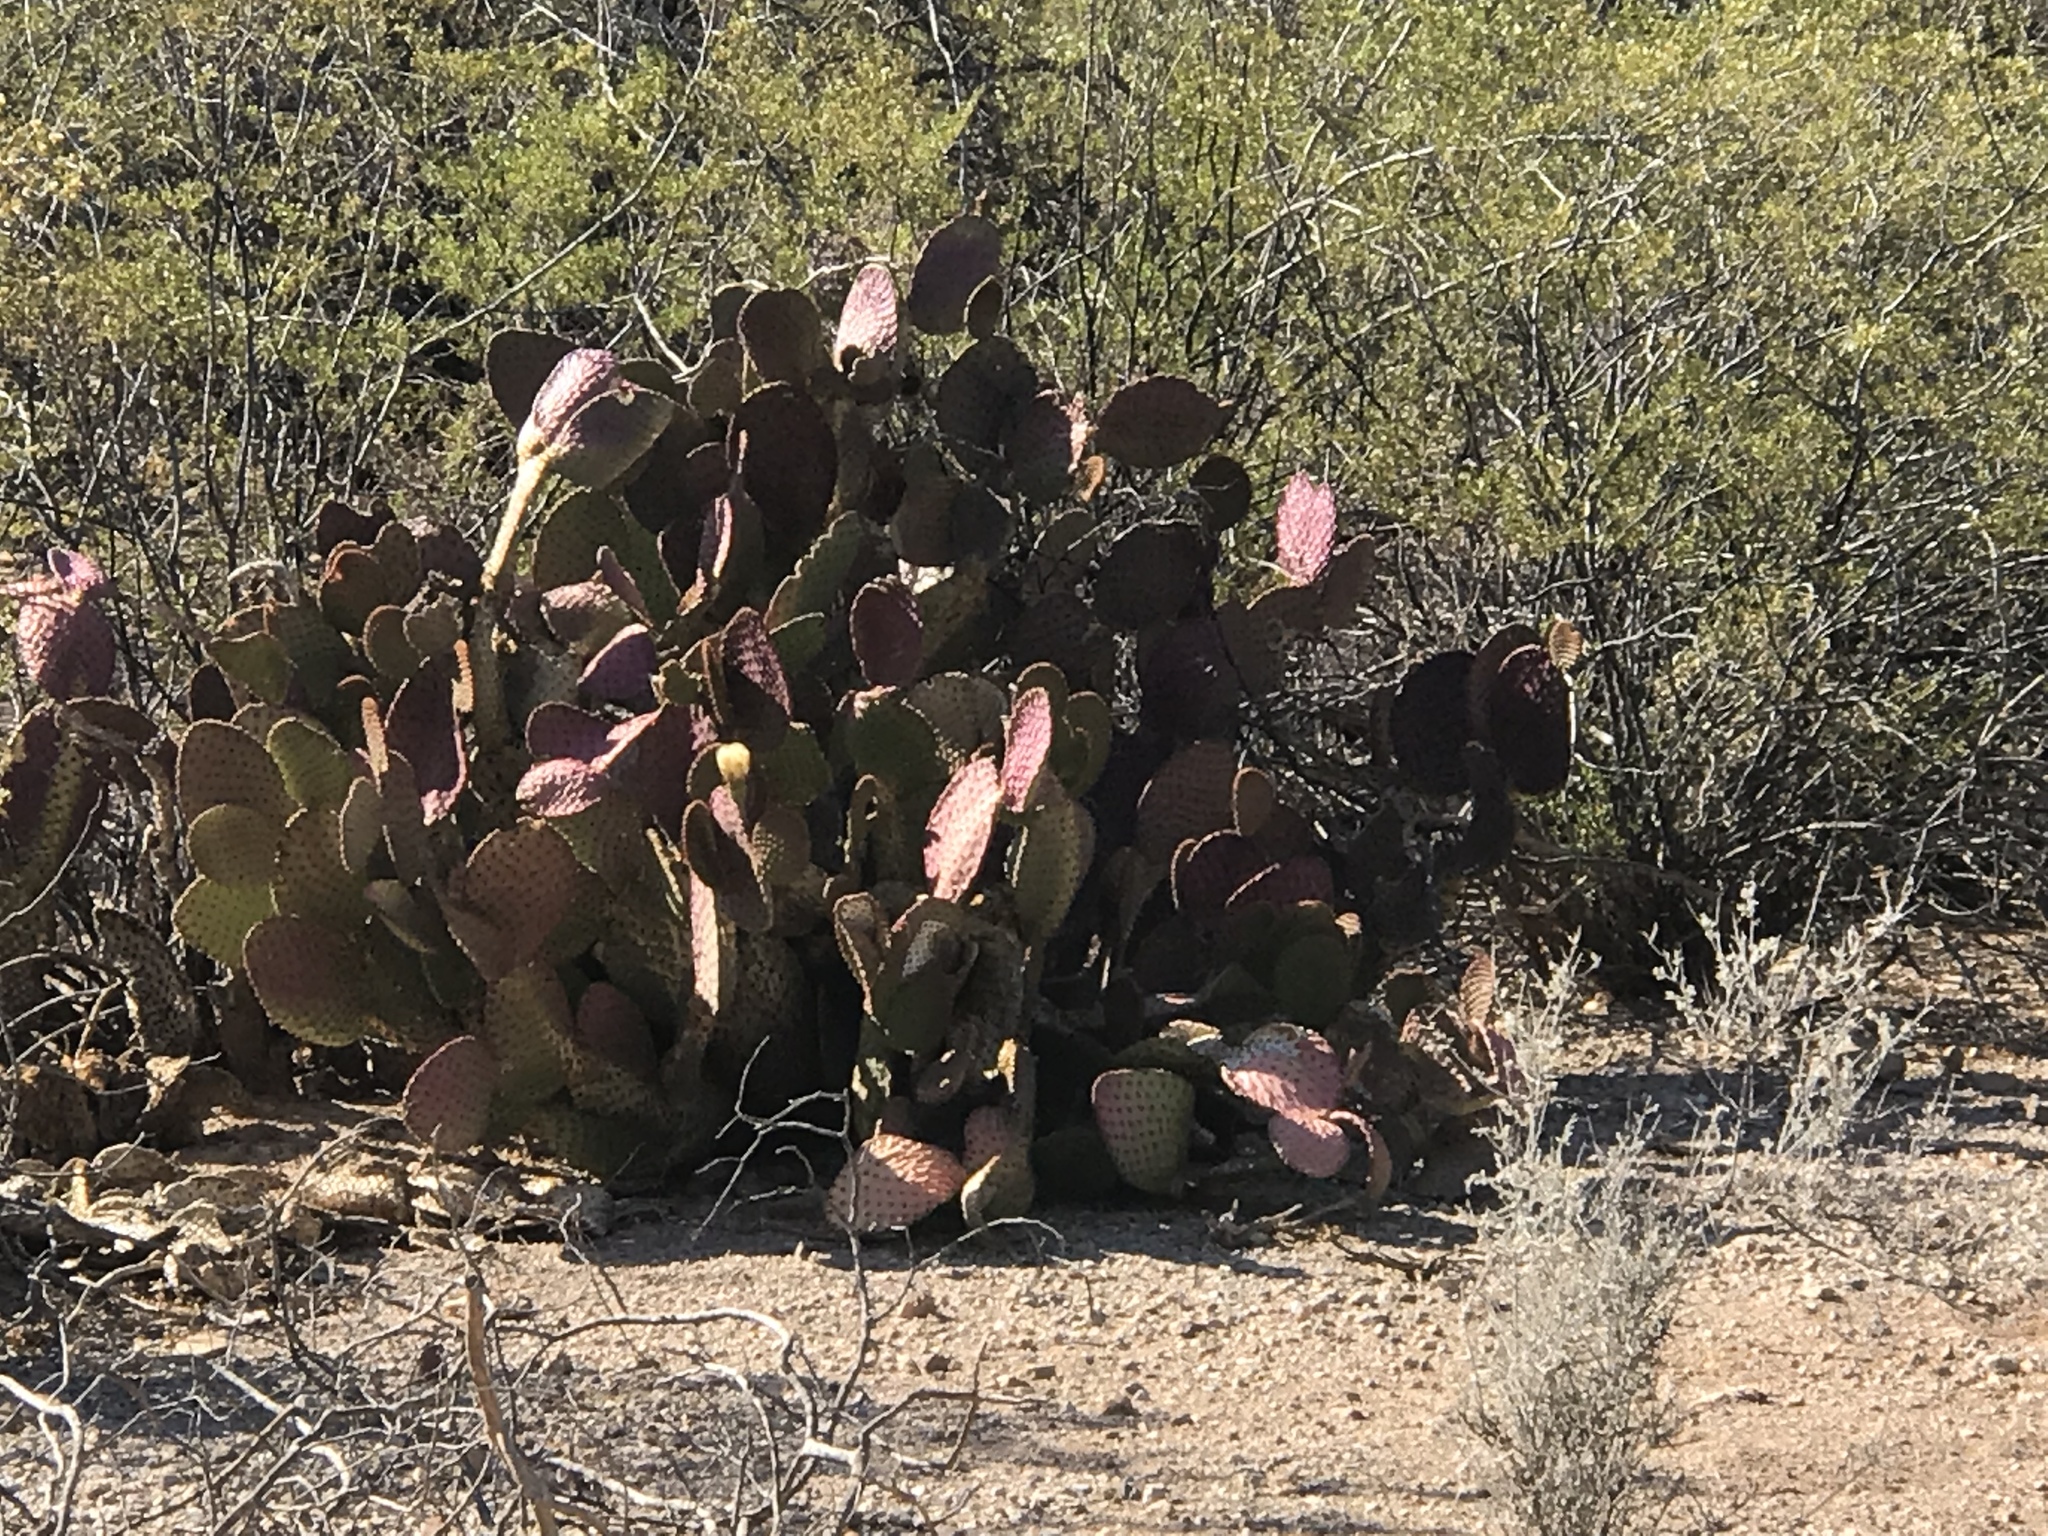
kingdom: Plantae
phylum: Tracheophyta
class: Magnoliopsida
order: Caryophyllales
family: Cactaceae
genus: Opuntia
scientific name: Opuntia gosseliniana
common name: Violet prickly-pear
